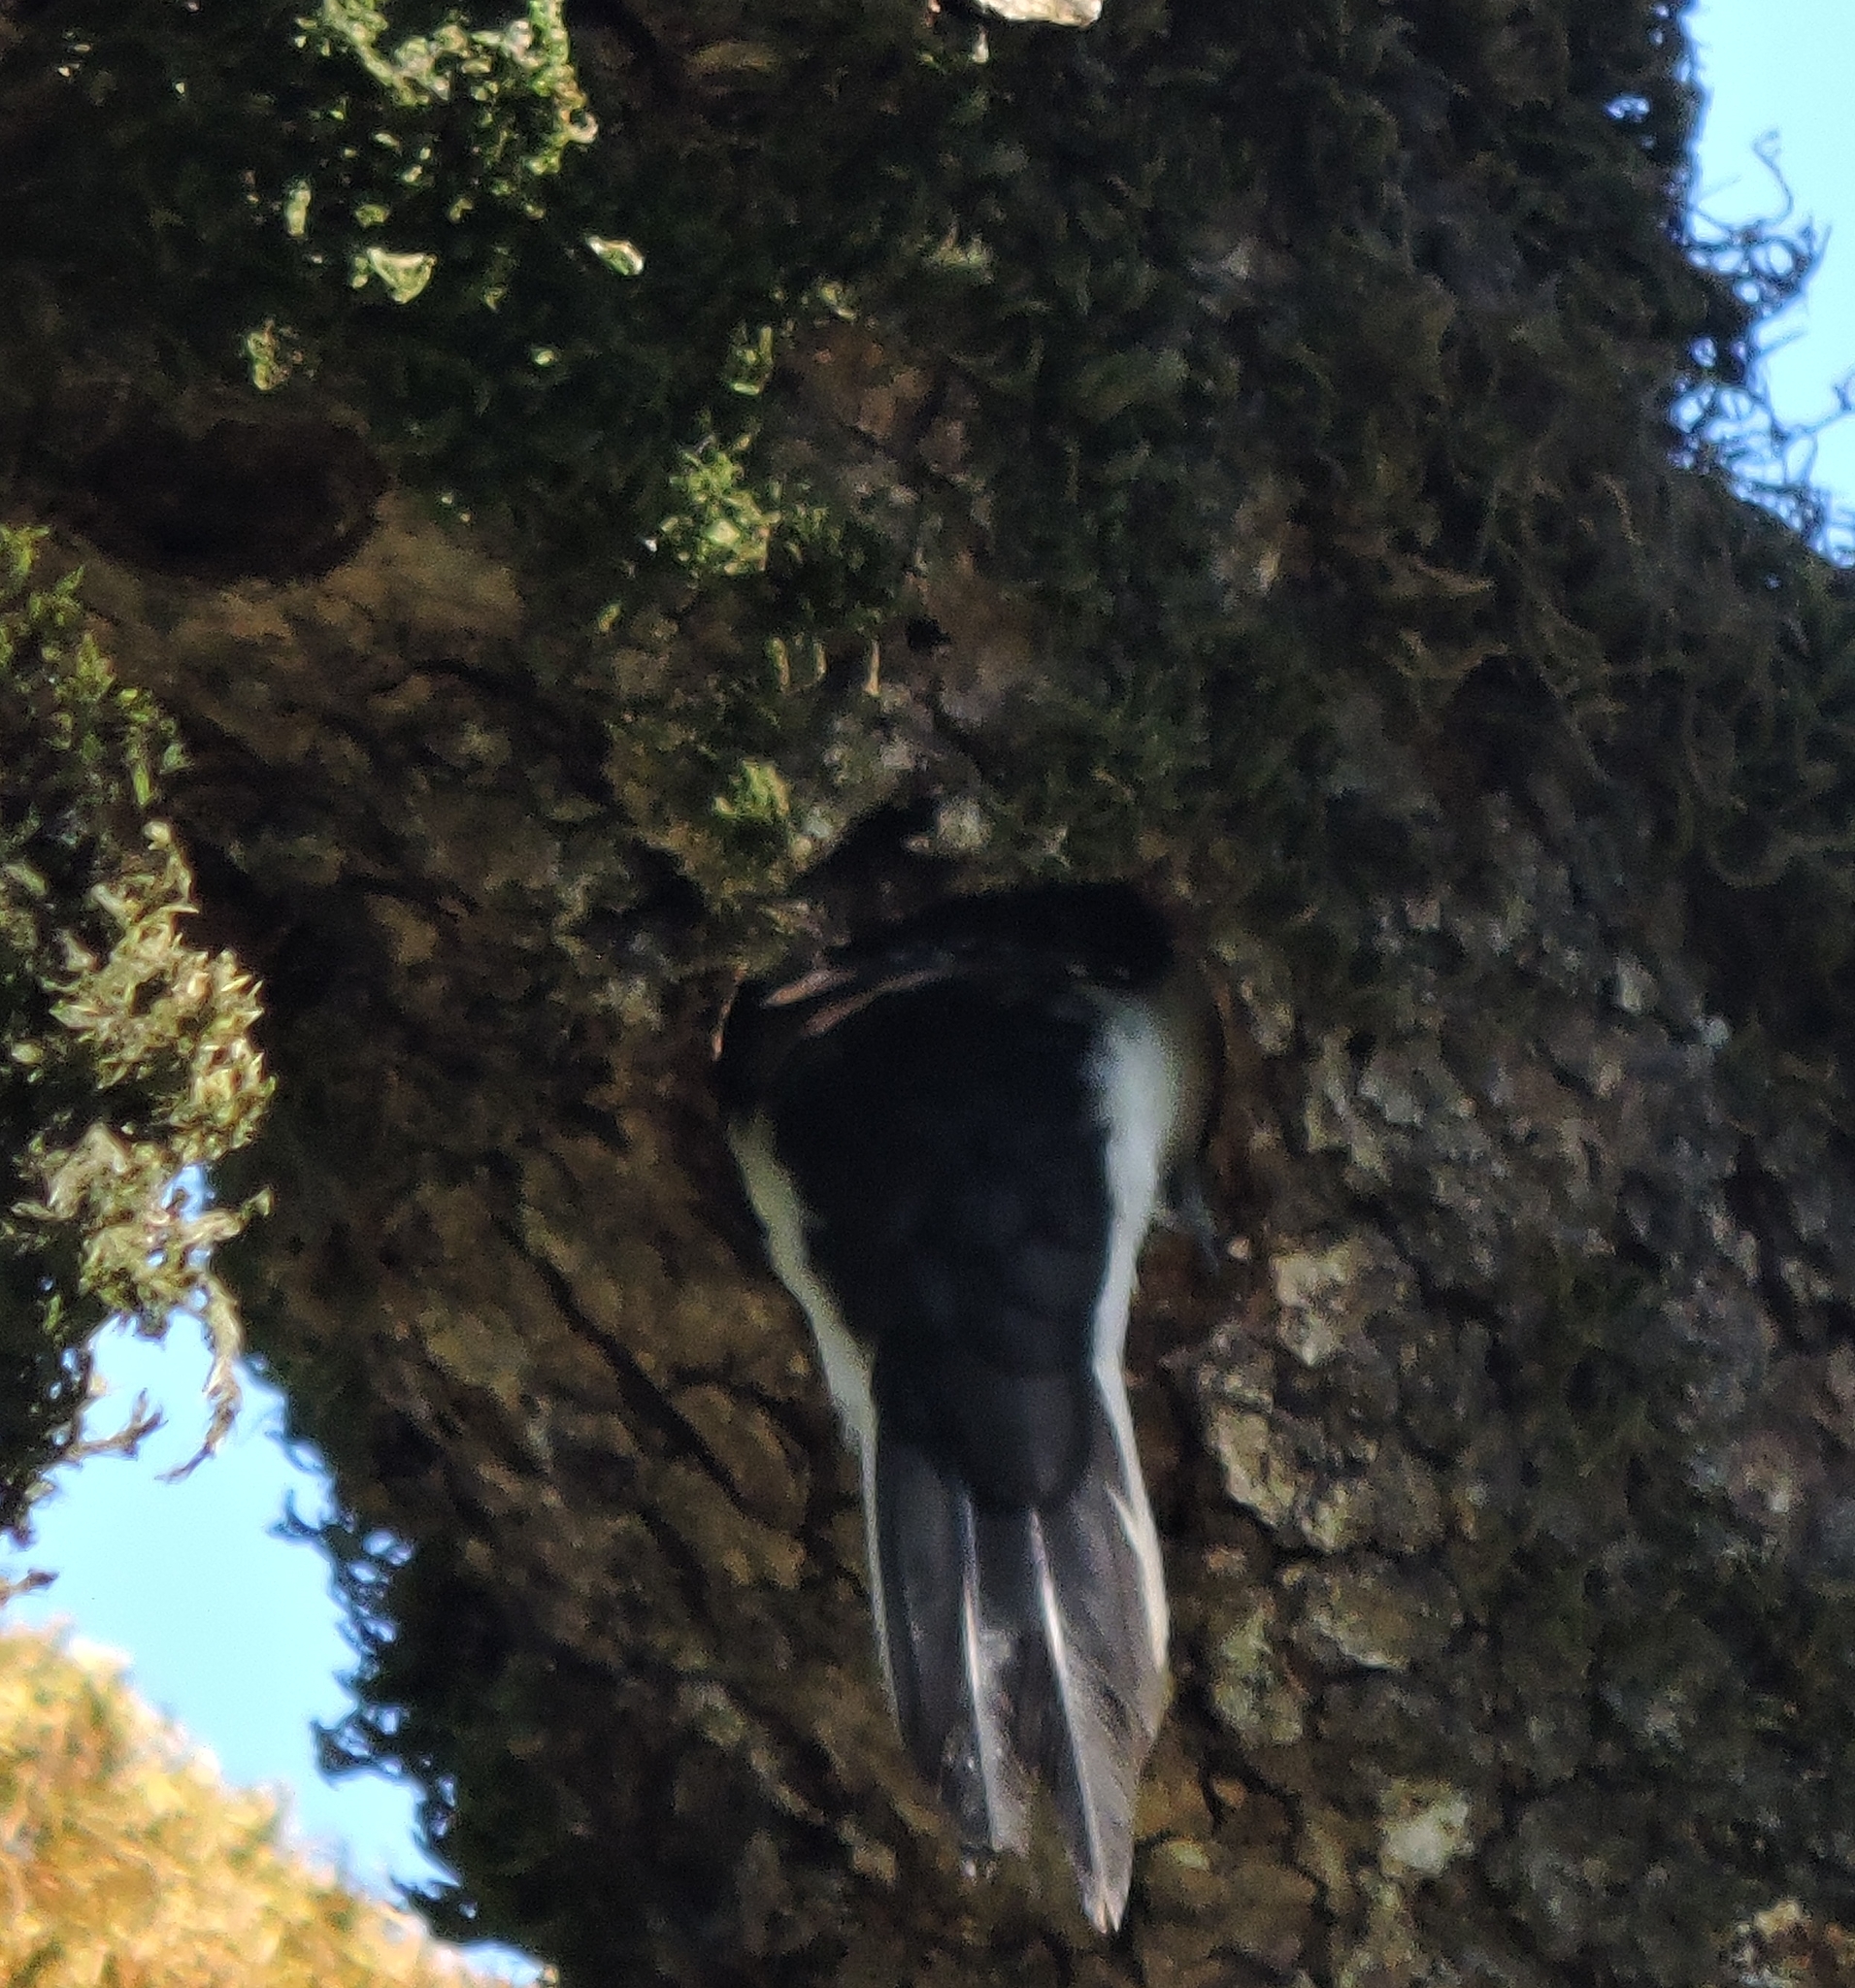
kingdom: Animalia
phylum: Chordata
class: Aves
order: Piciformes
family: Picidae
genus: Leuconotopicus
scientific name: Leuconotopicus villosus
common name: Hairy woodpecker
